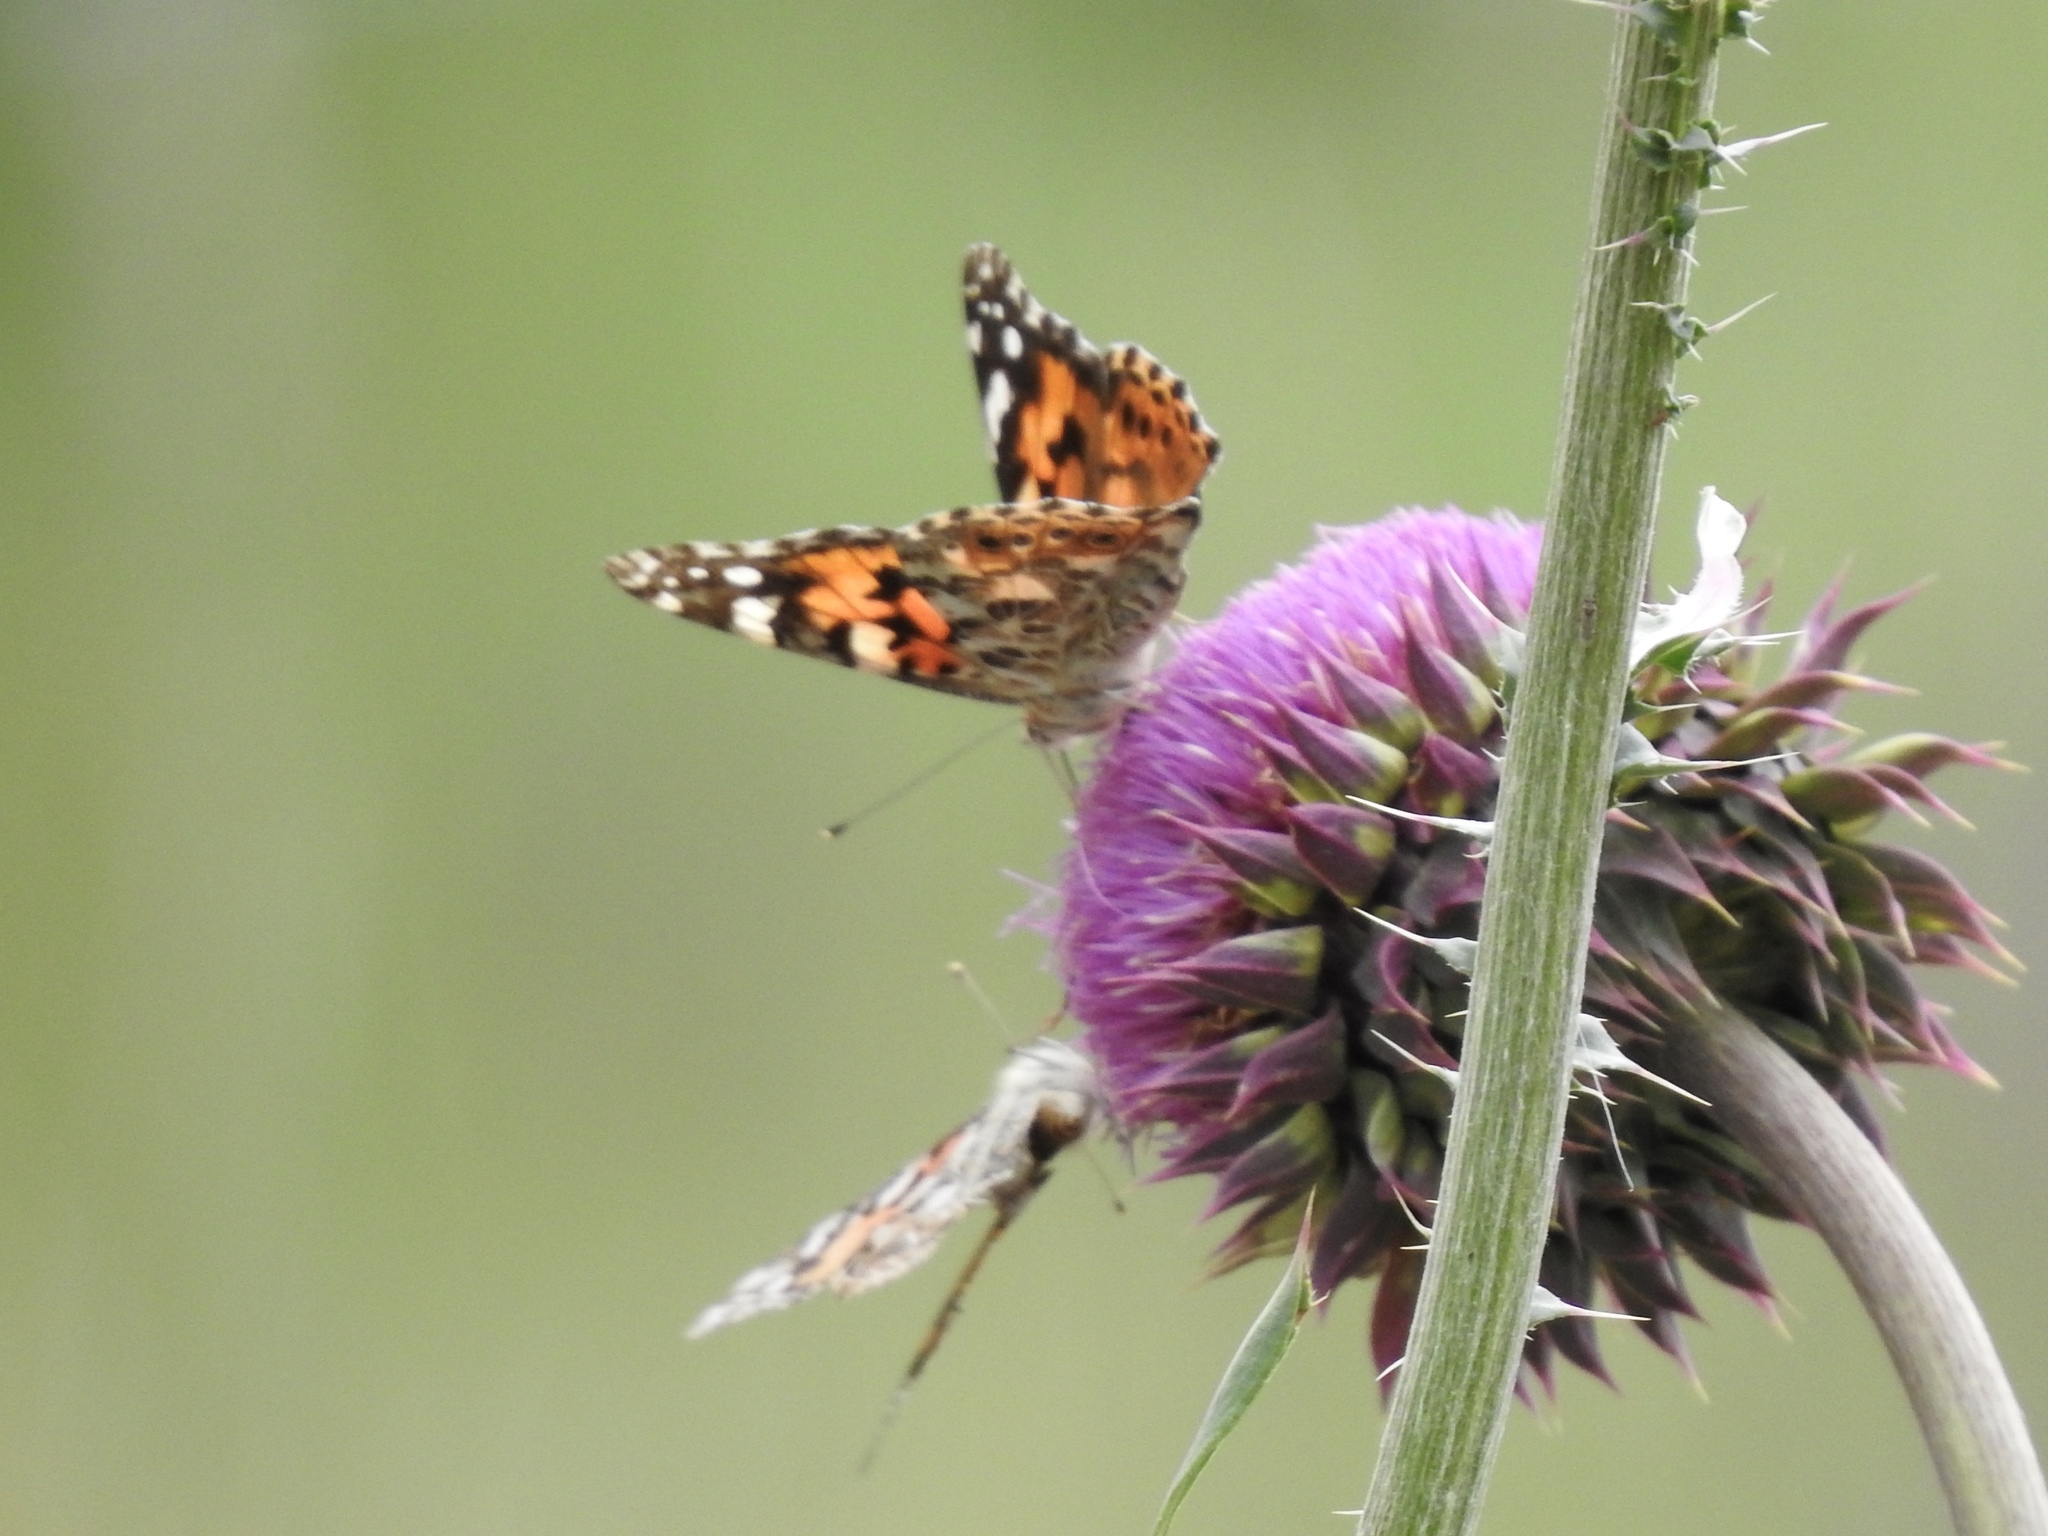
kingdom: Animalia
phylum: Arthropoda
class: Insecta
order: Lepidoptera
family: Nymphalidae
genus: Vanessa
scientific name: Vanessa cardui
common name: Painted lady
